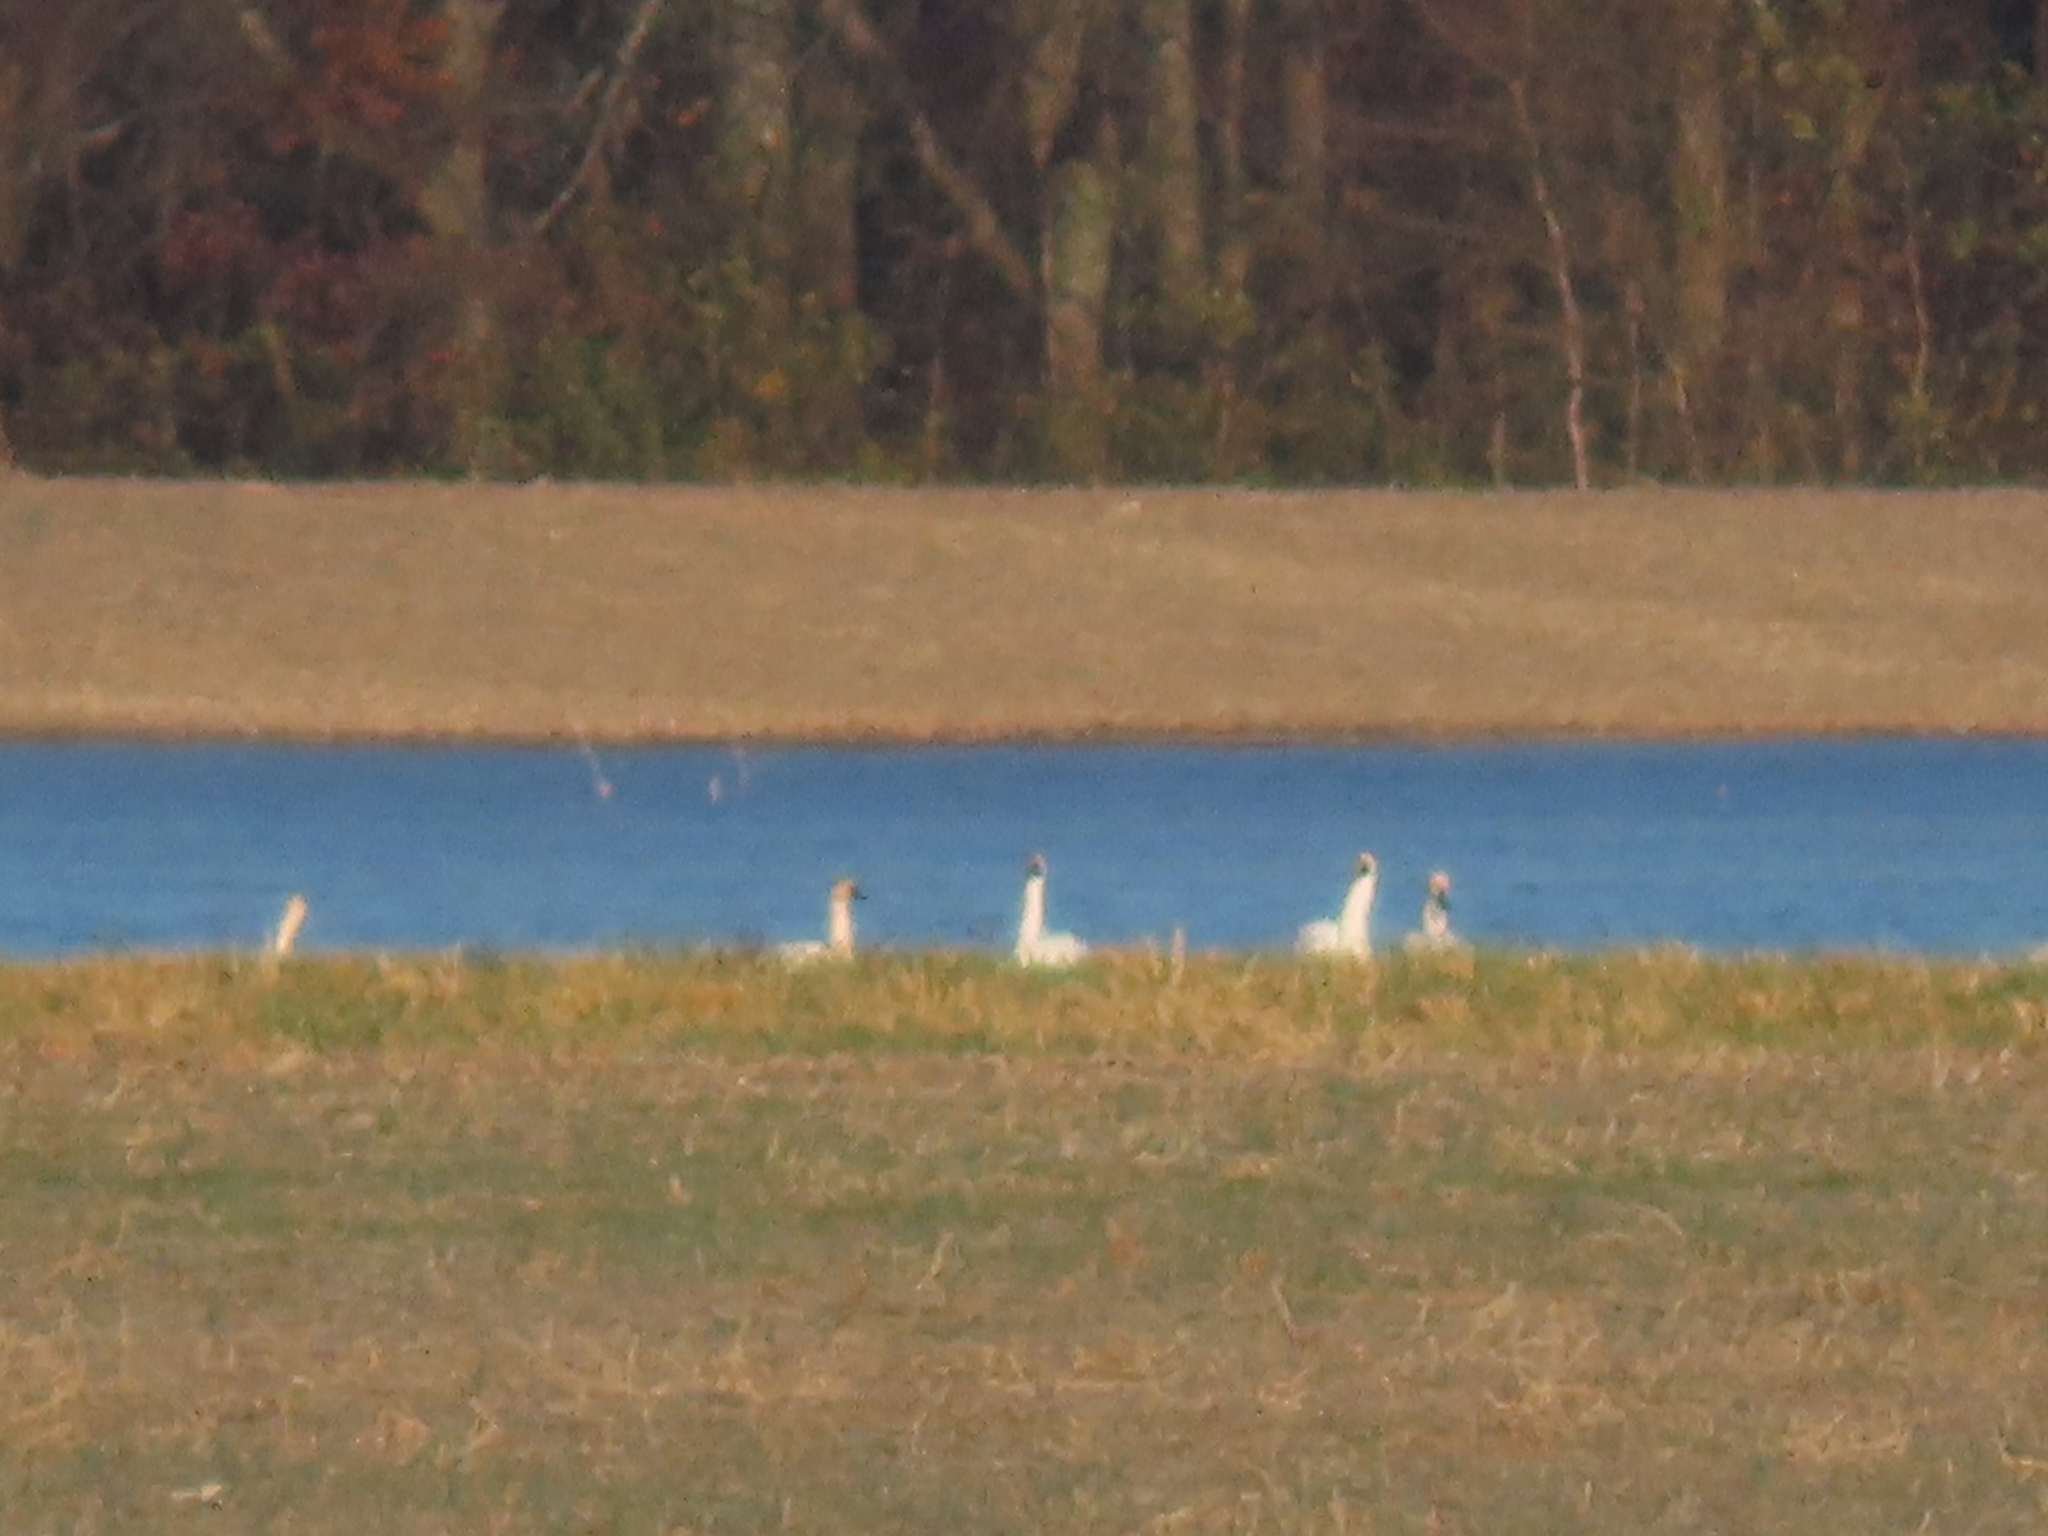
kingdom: Animalia
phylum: Chordata
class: Aves
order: Anseriformes
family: Anatidae
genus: Cygnus
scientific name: Cygnus columbianus
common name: Tundra swan
